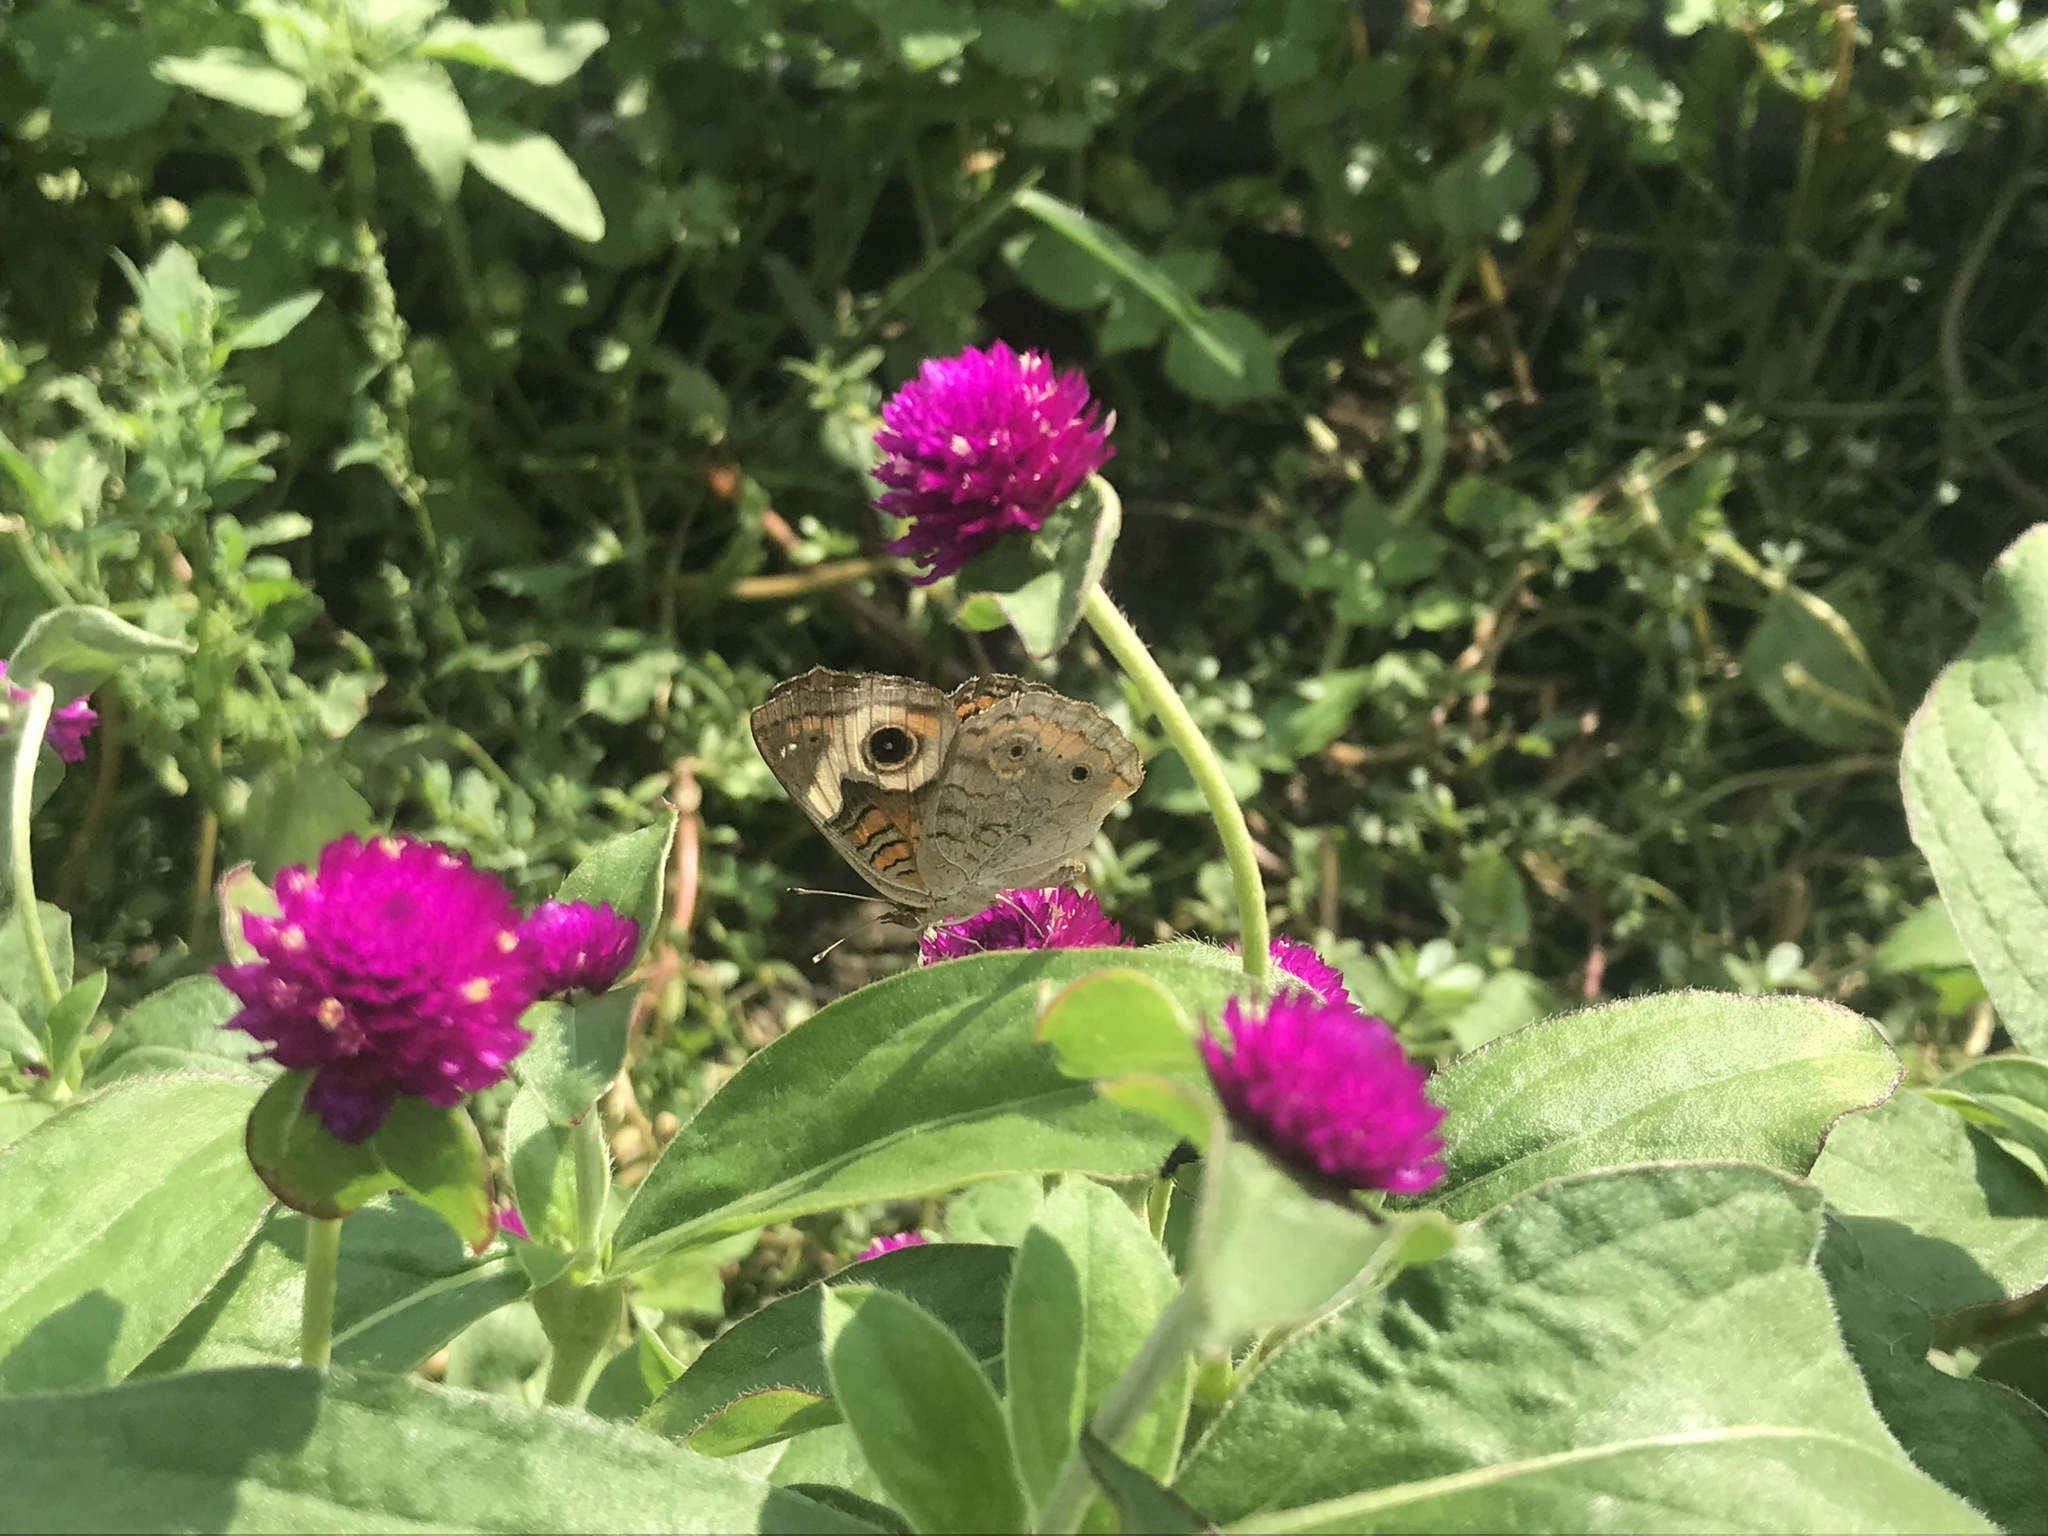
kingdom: Animalia
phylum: Arthropoda
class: Insecta
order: Lepidoptera
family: Nymphalidae
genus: Junonia
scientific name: Junonia coenia
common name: Common buckeye
